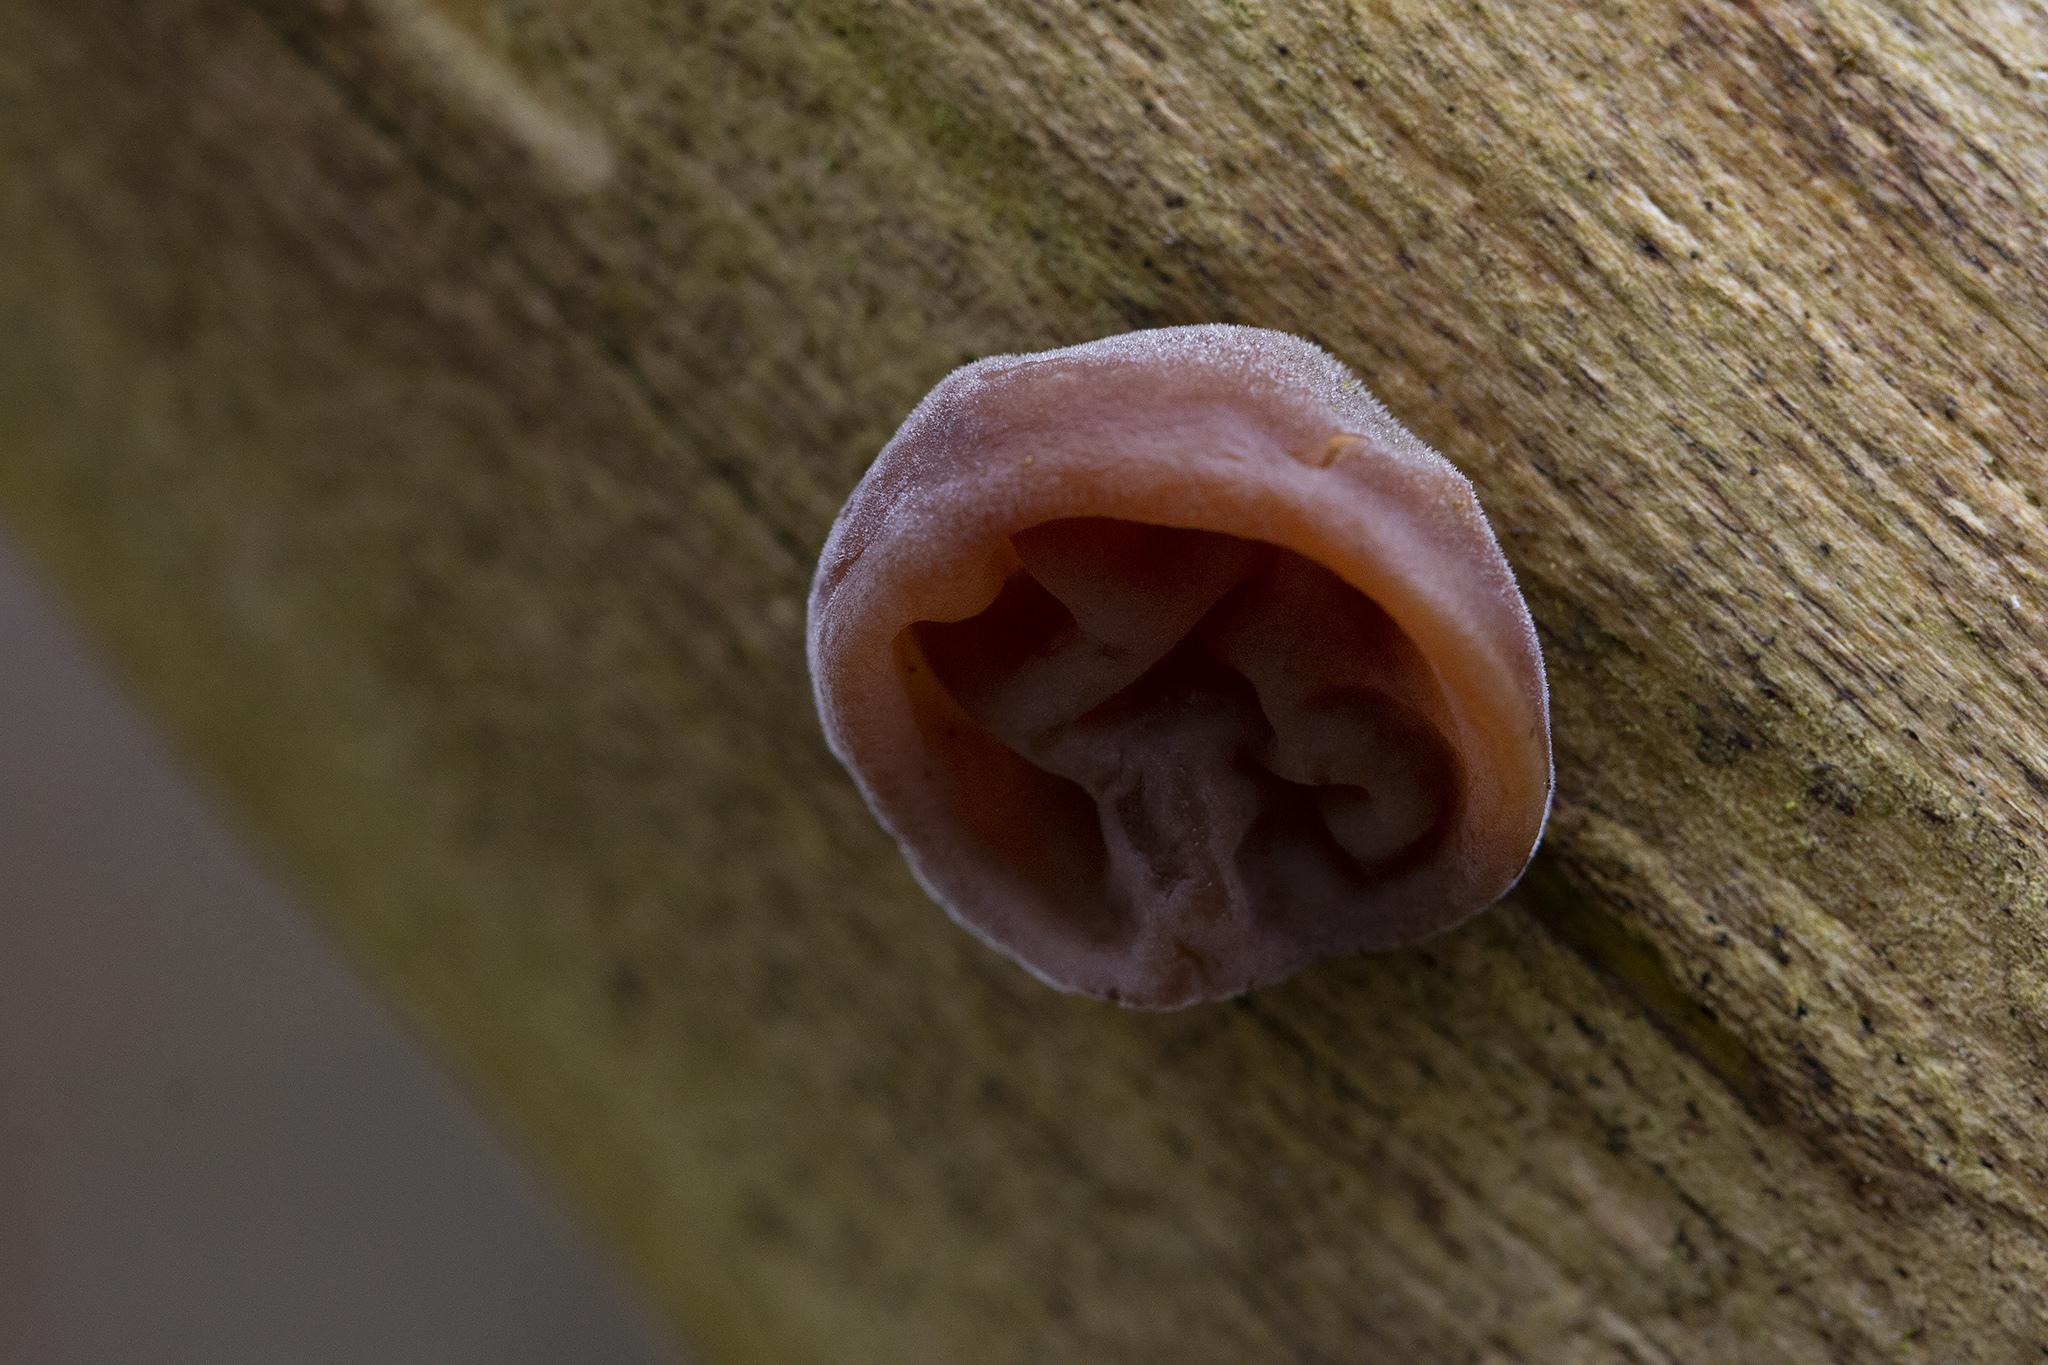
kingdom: Fungi
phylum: Basidiomycota
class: Agaricomycetes
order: Auriculariales
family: Auriculariaceae
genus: Auricularia
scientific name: Auricularia auricula-judae
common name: Jelly ear
